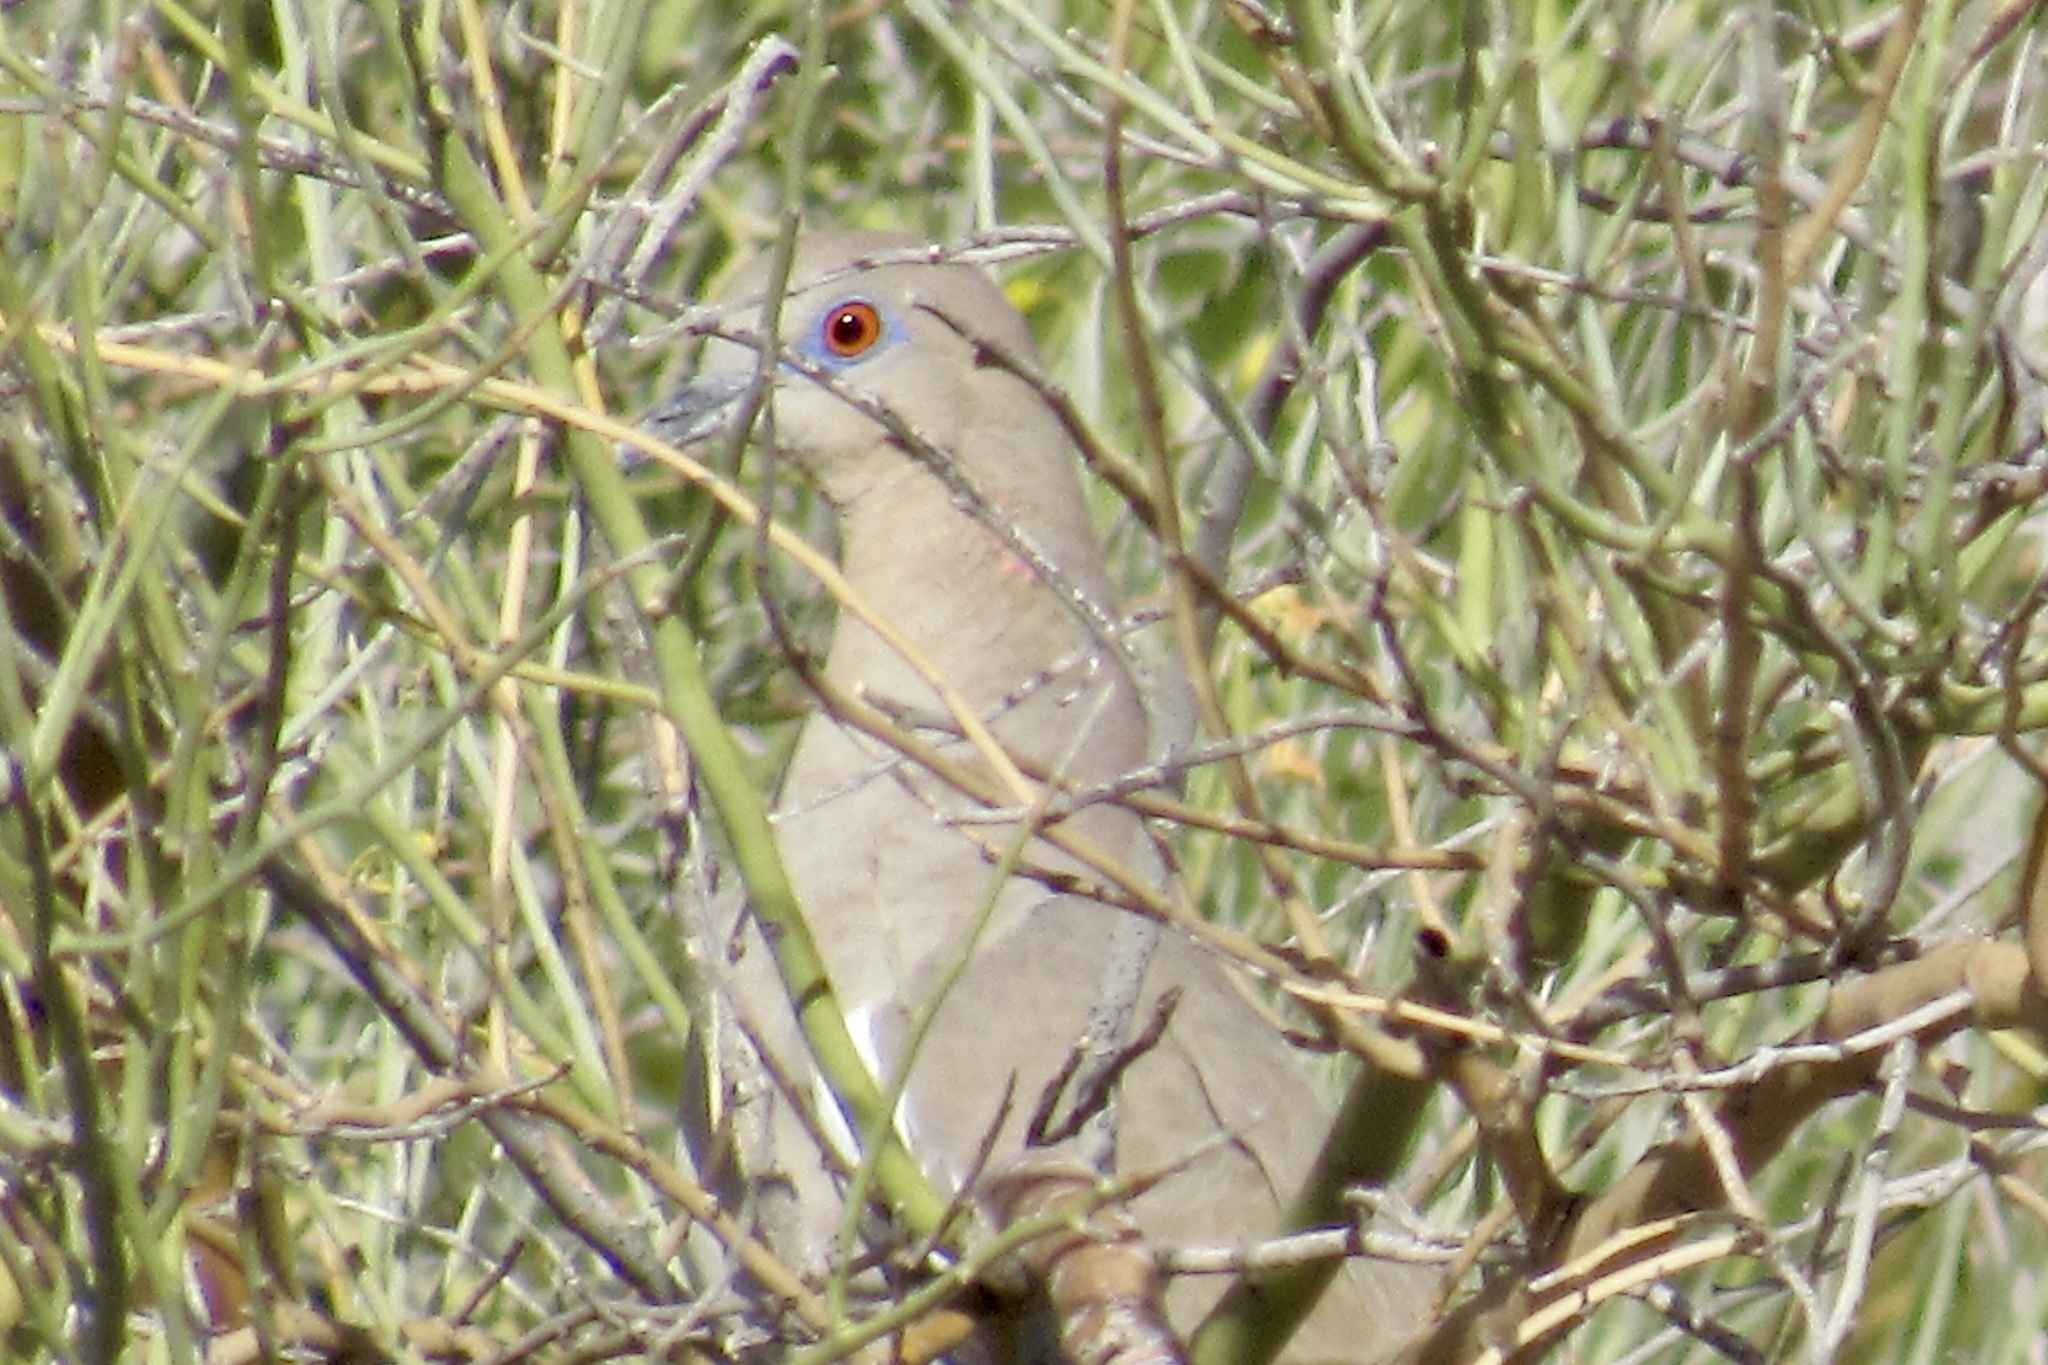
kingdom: Animalia
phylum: Chordata
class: Aves
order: Columbiformes
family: Columbidae
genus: Zenaida
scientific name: Zenaida asiatica
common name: White-winged dove
